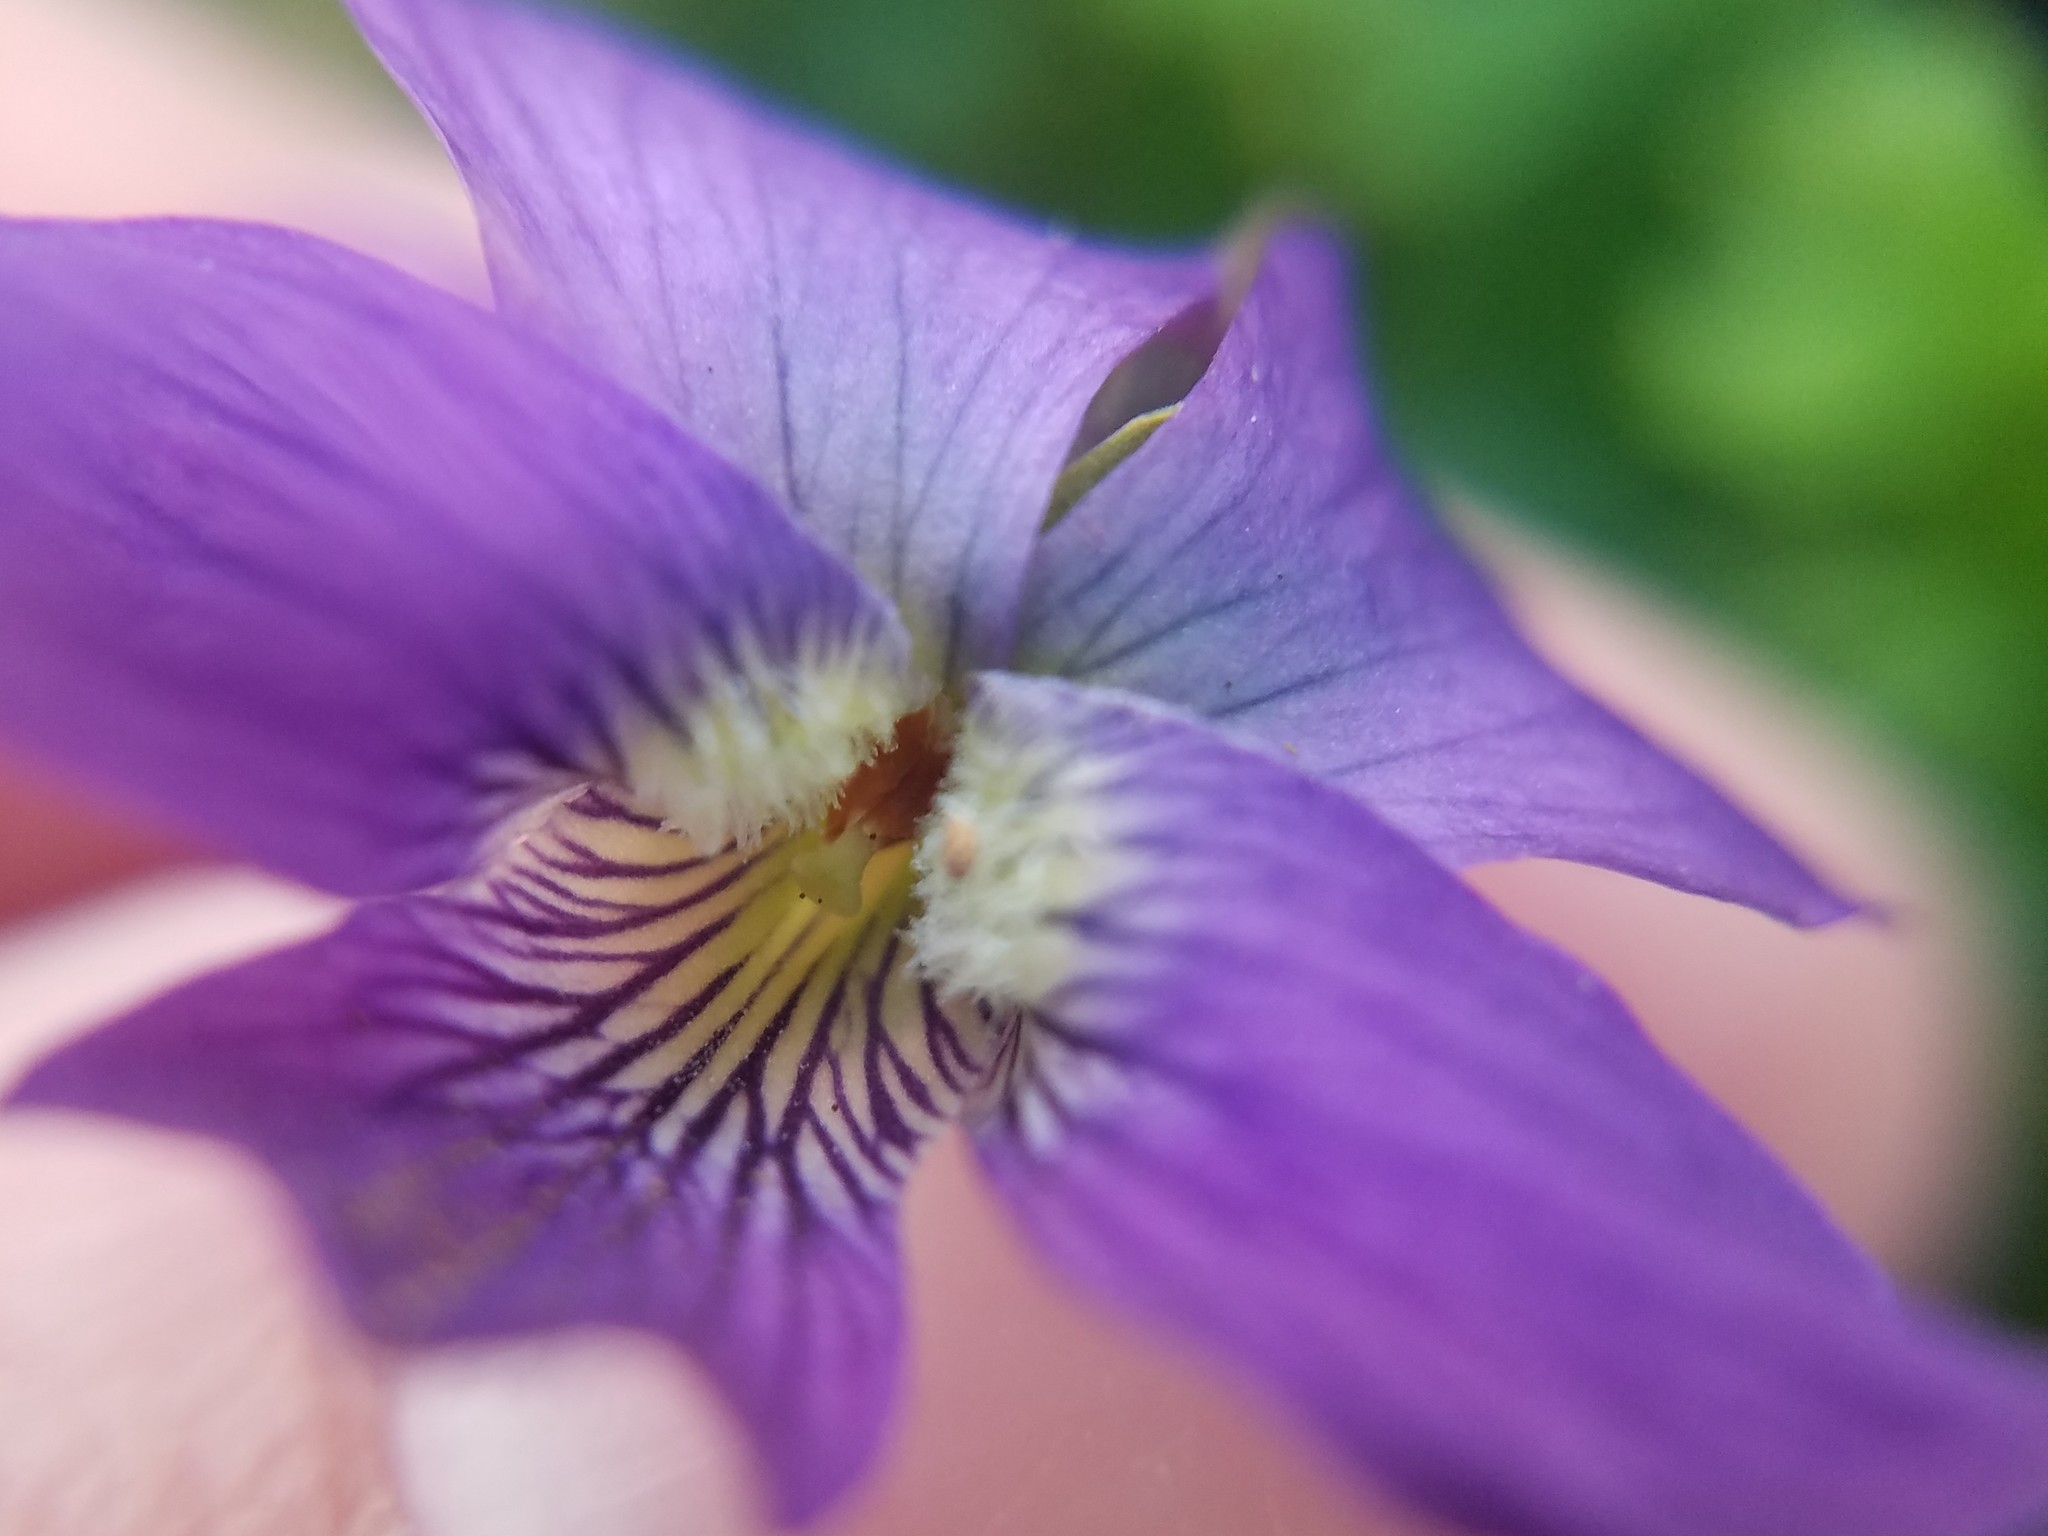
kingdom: Plantae
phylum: Tracheophyta
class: Magnoliopsida
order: Malpighiales
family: Violaceae
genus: Viola
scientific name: Viola sororia
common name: Dooryard violet
